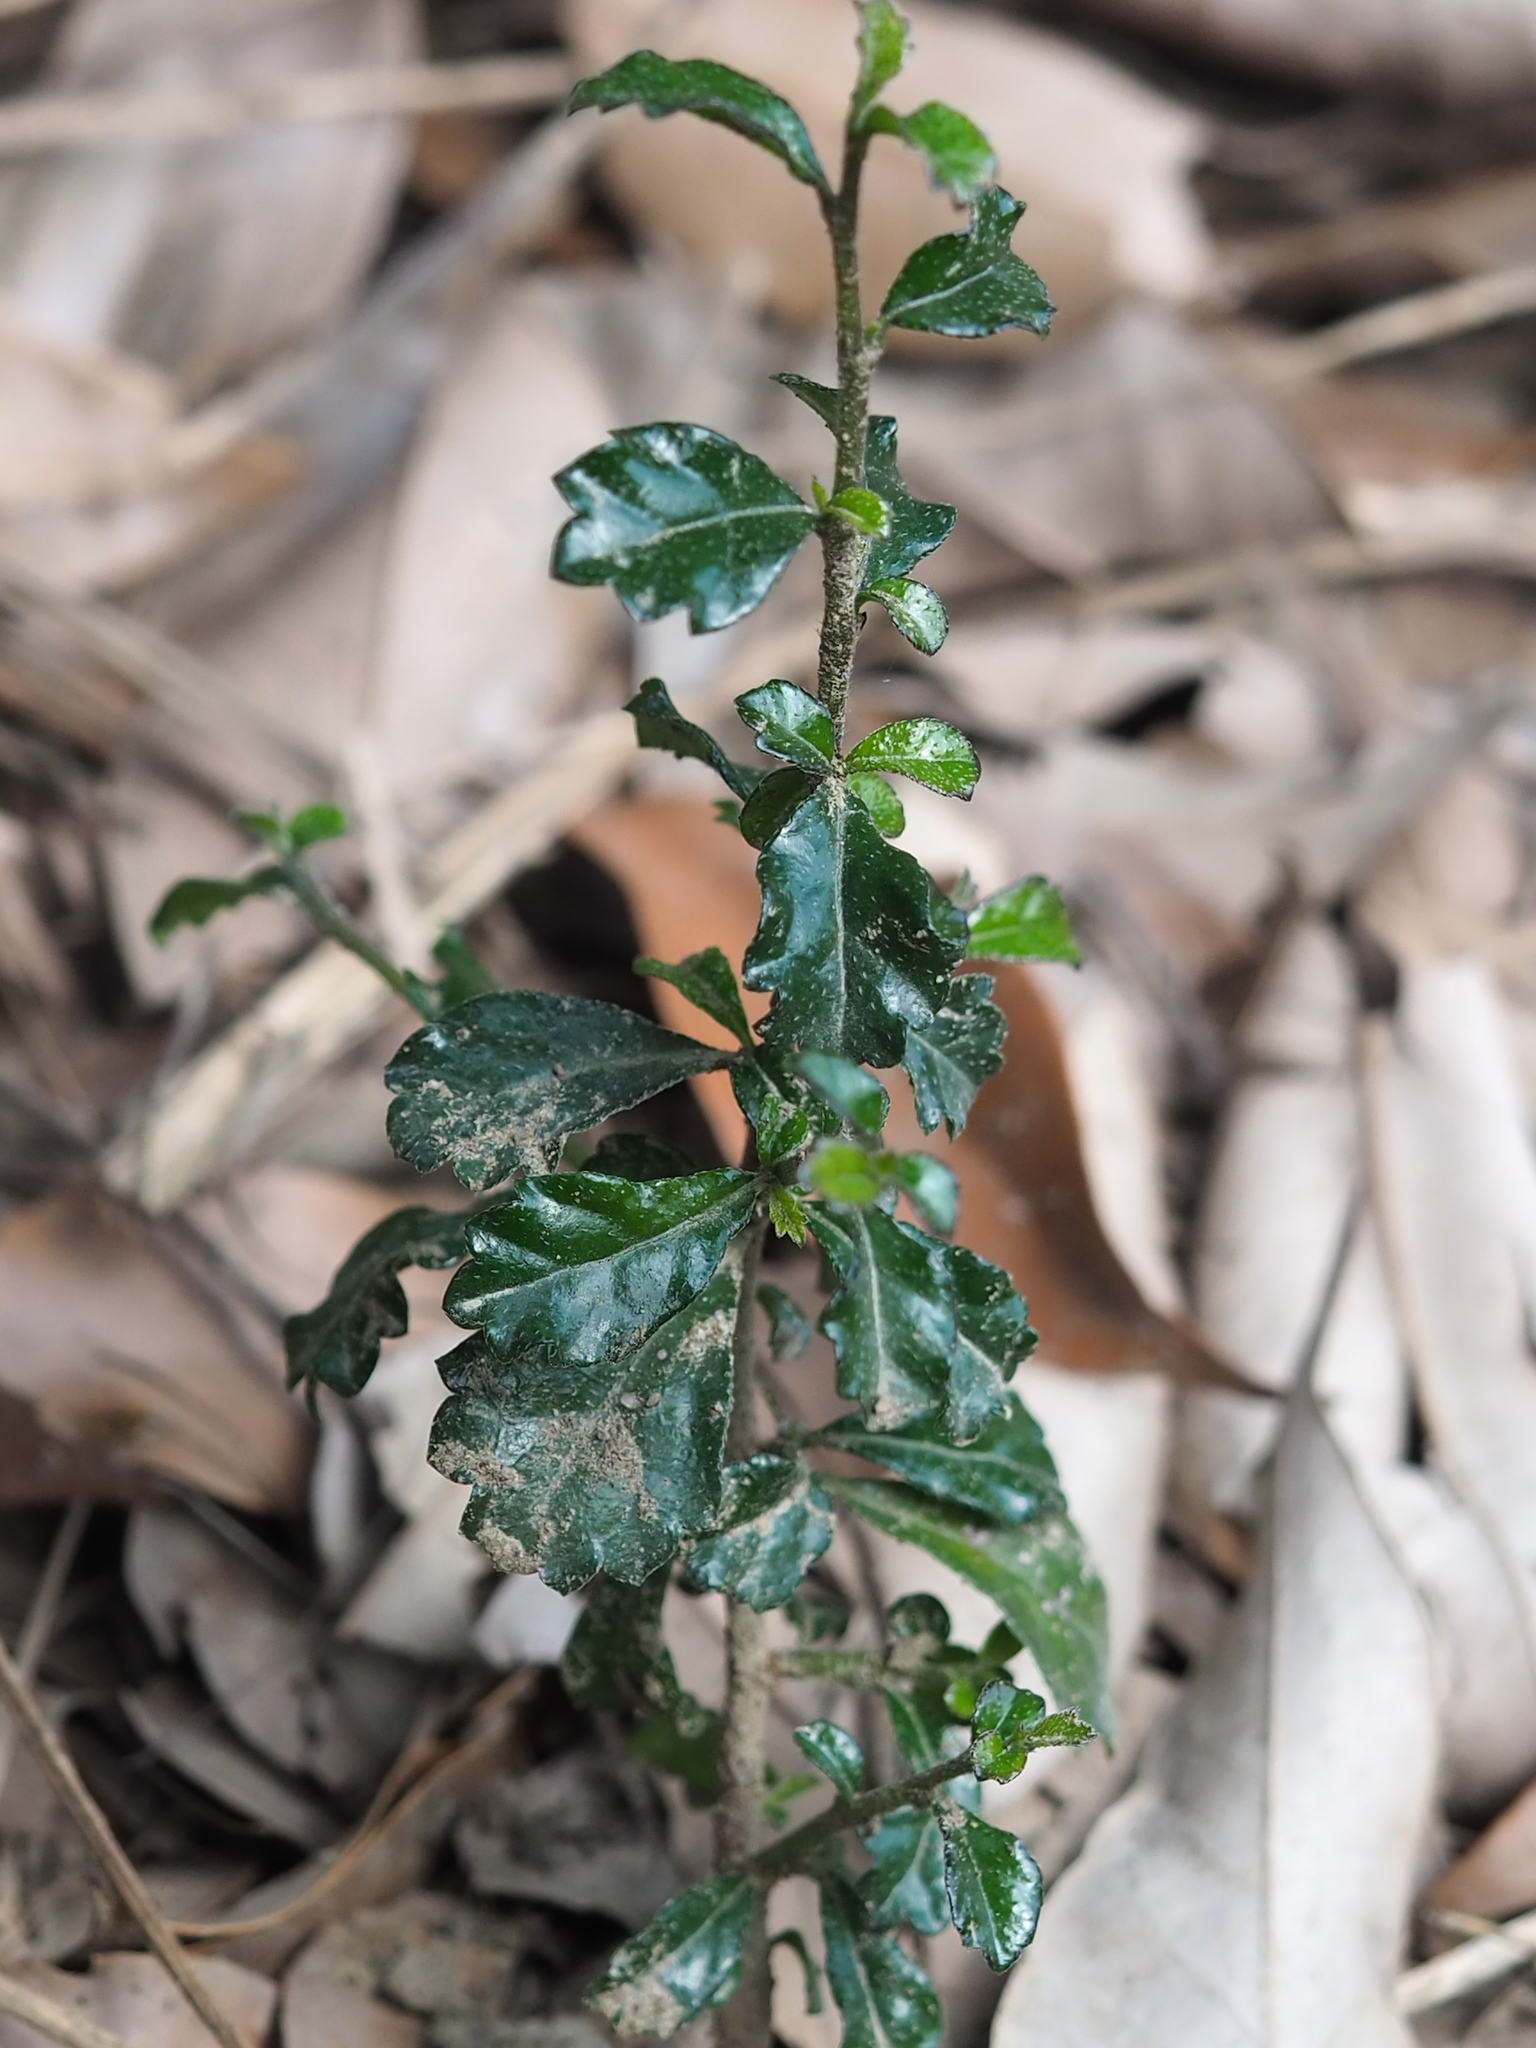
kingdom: Plantae
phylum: Tracheophyta
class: Magnoliopsida
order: Boraginales
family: Ehretiaceae
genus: Ehretia
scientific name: Ehretia microphylla
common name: Fukien-tea
